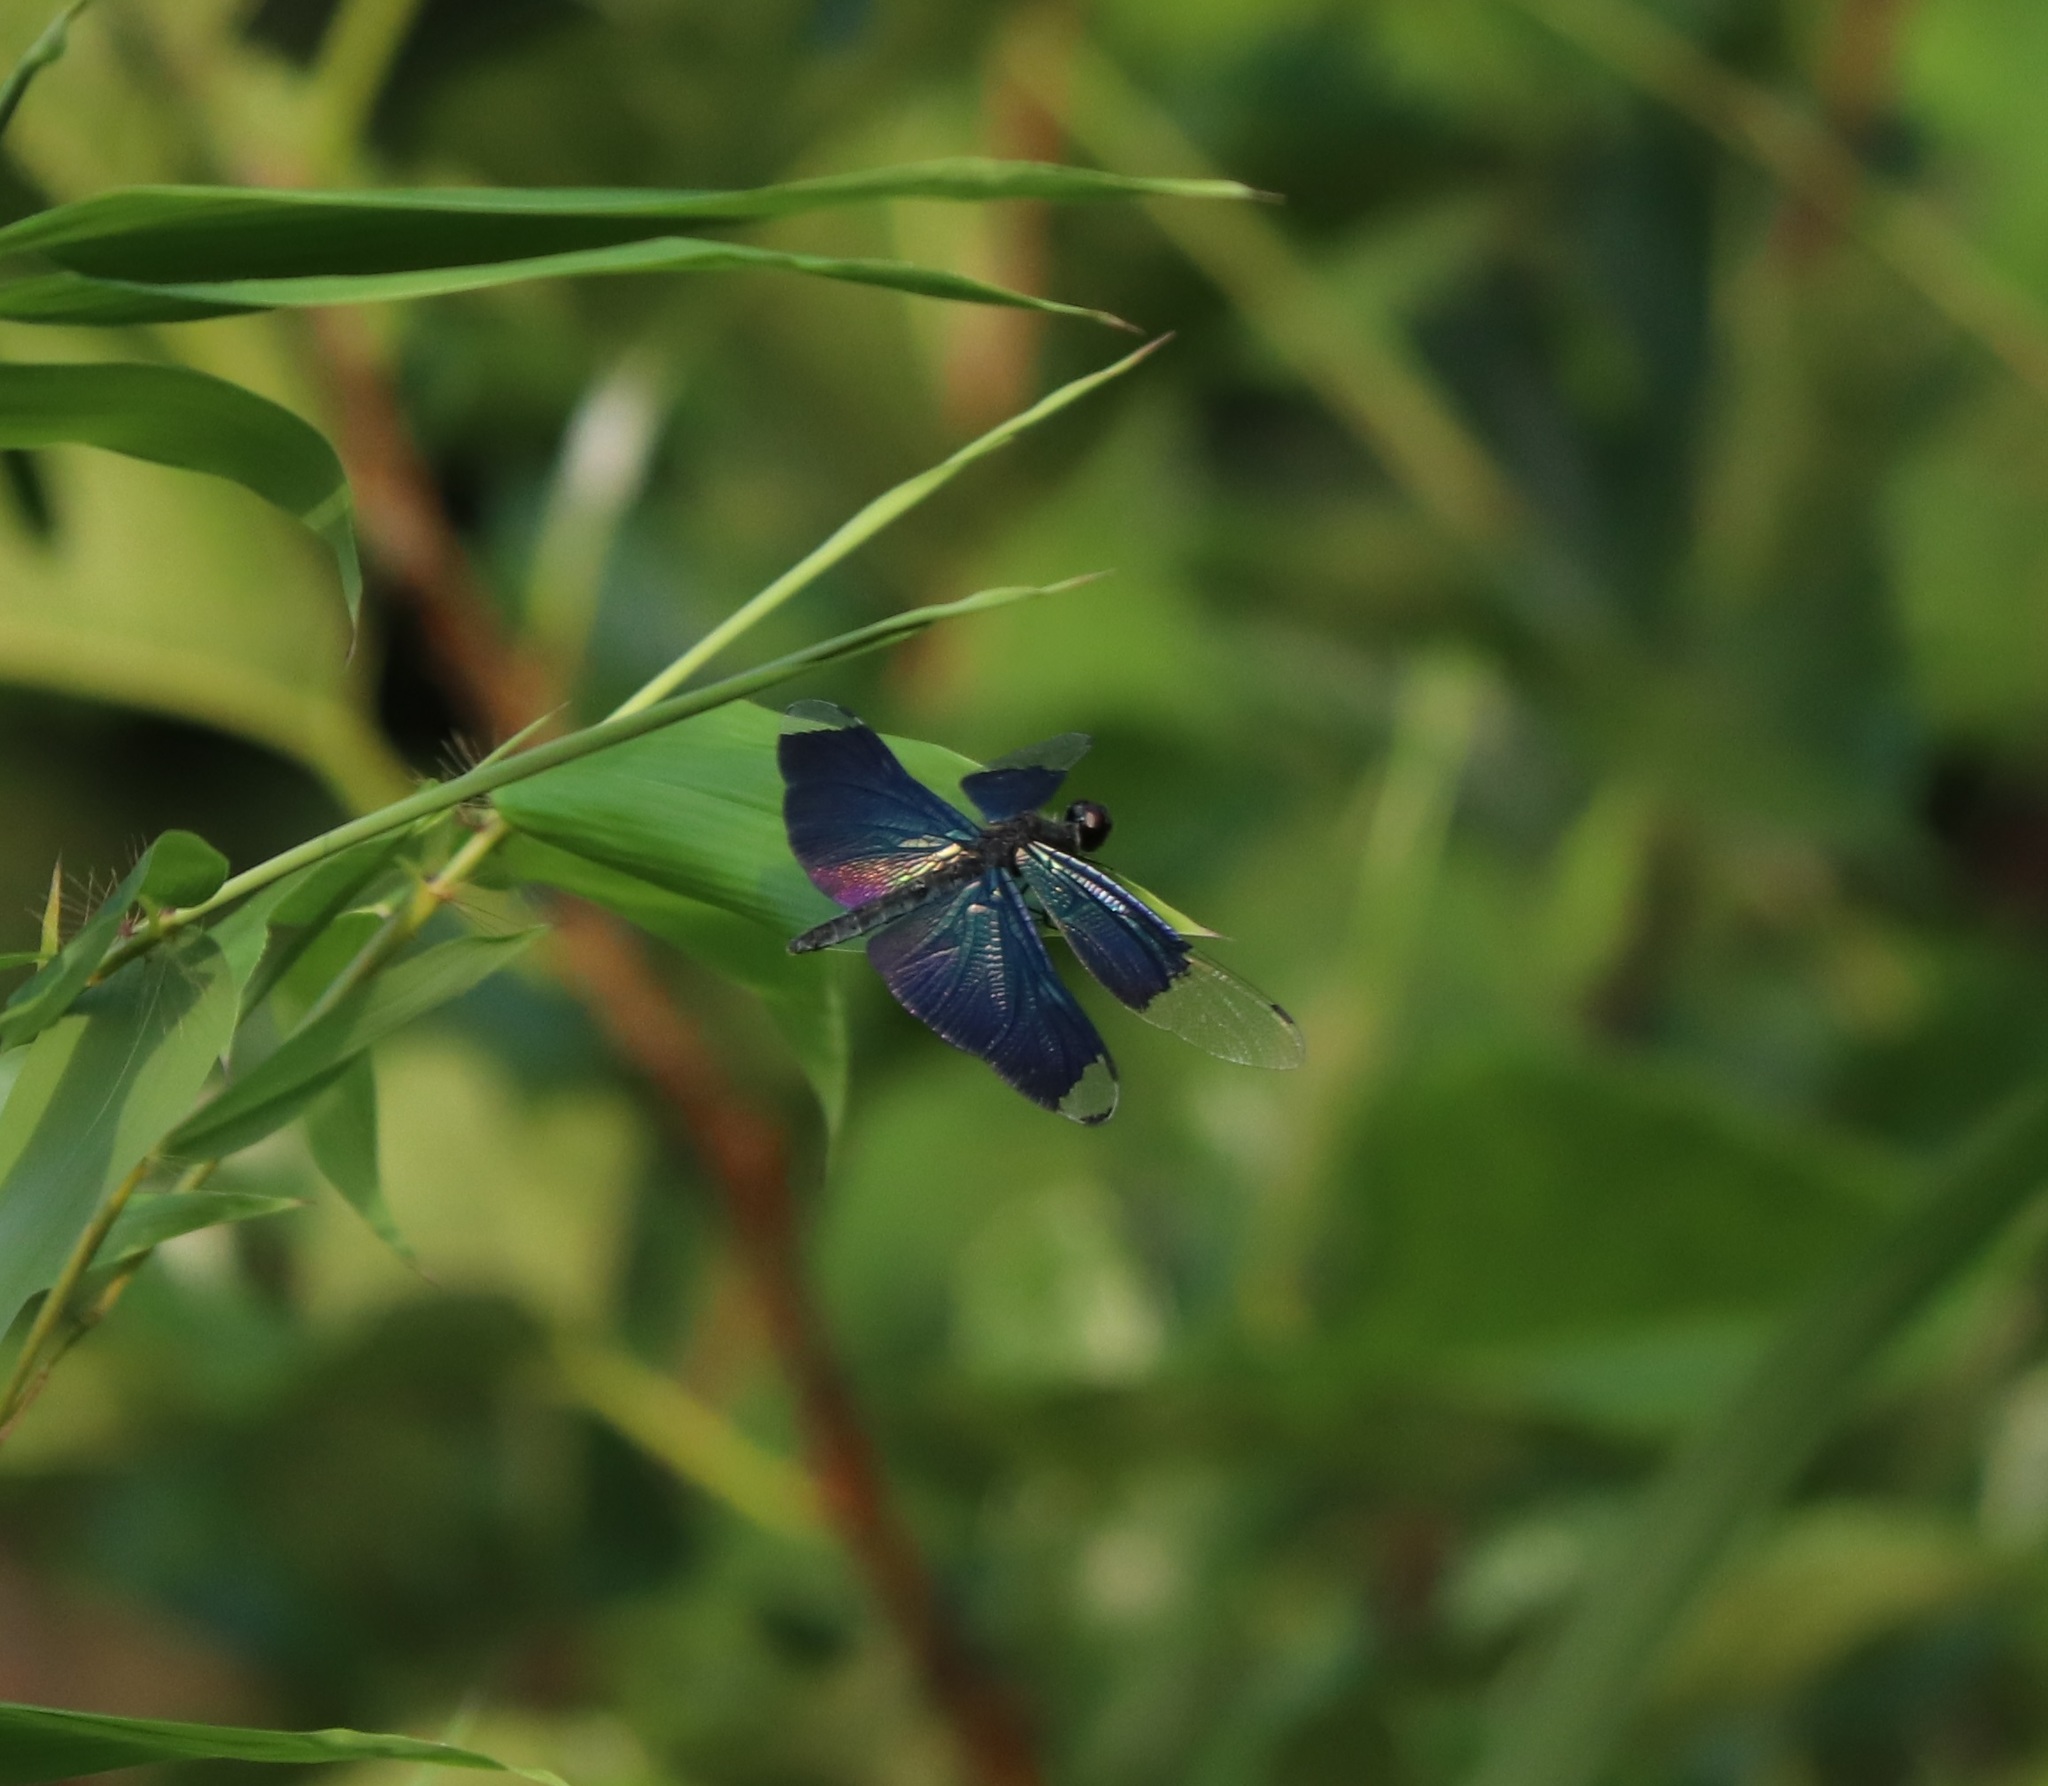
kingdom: Animalia
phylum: Arthropoda
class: Insecta
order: Odonata
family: Libellulidae
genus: Rhyothemis
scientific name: Rhyothemis fuliginosa
